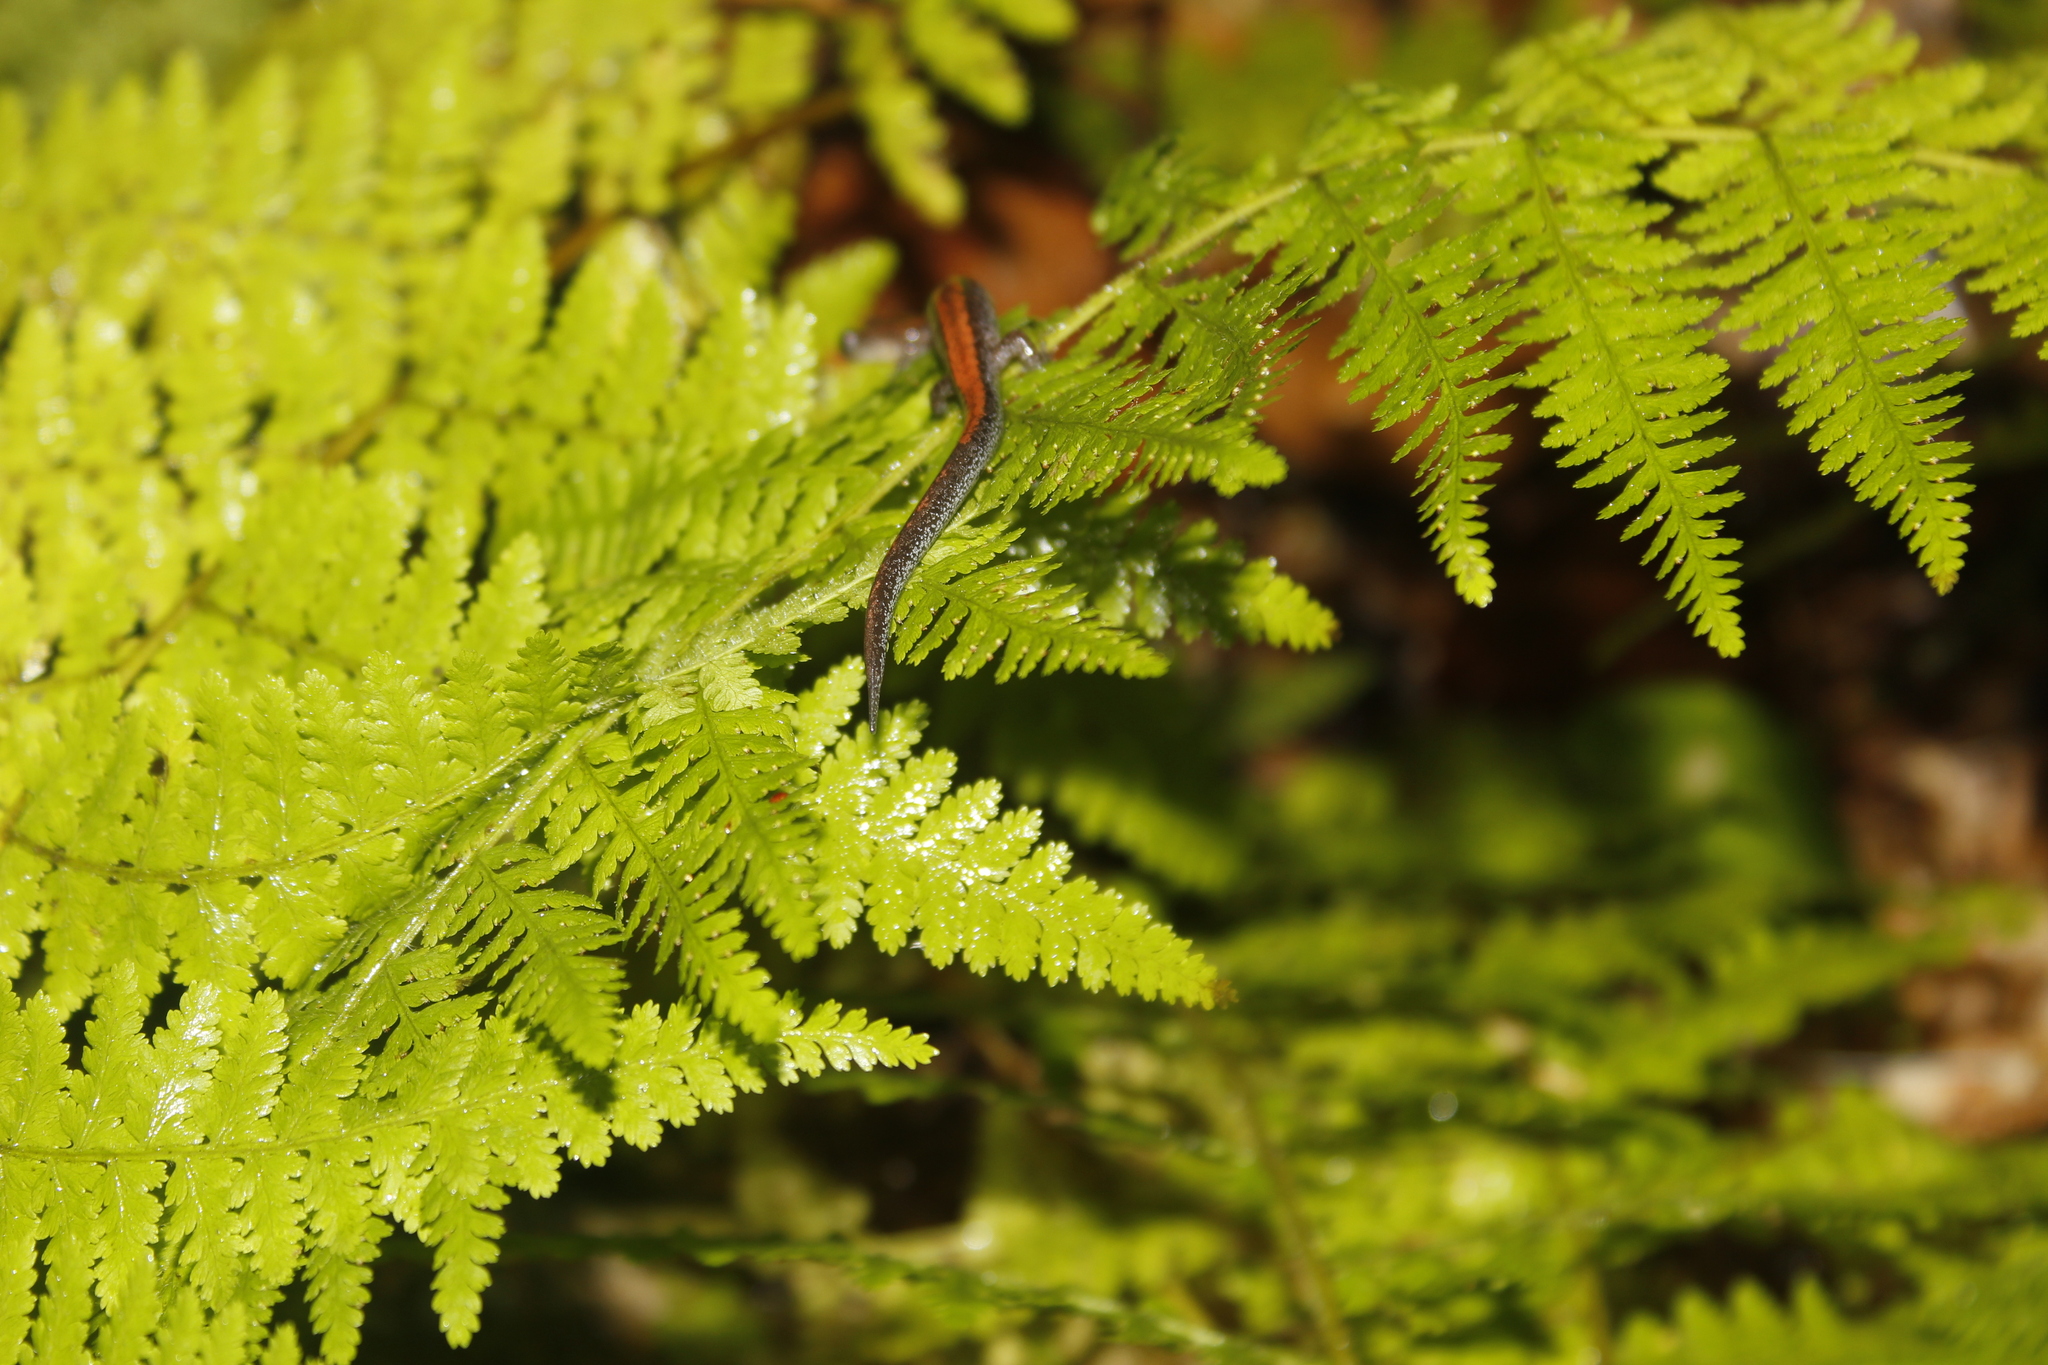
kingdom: Animalia
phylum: Chordata
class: Amphibia
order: Caudata
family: Plethodontidae
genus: Plethodon
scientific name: Plethodon cinereus
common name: Redback salamander
